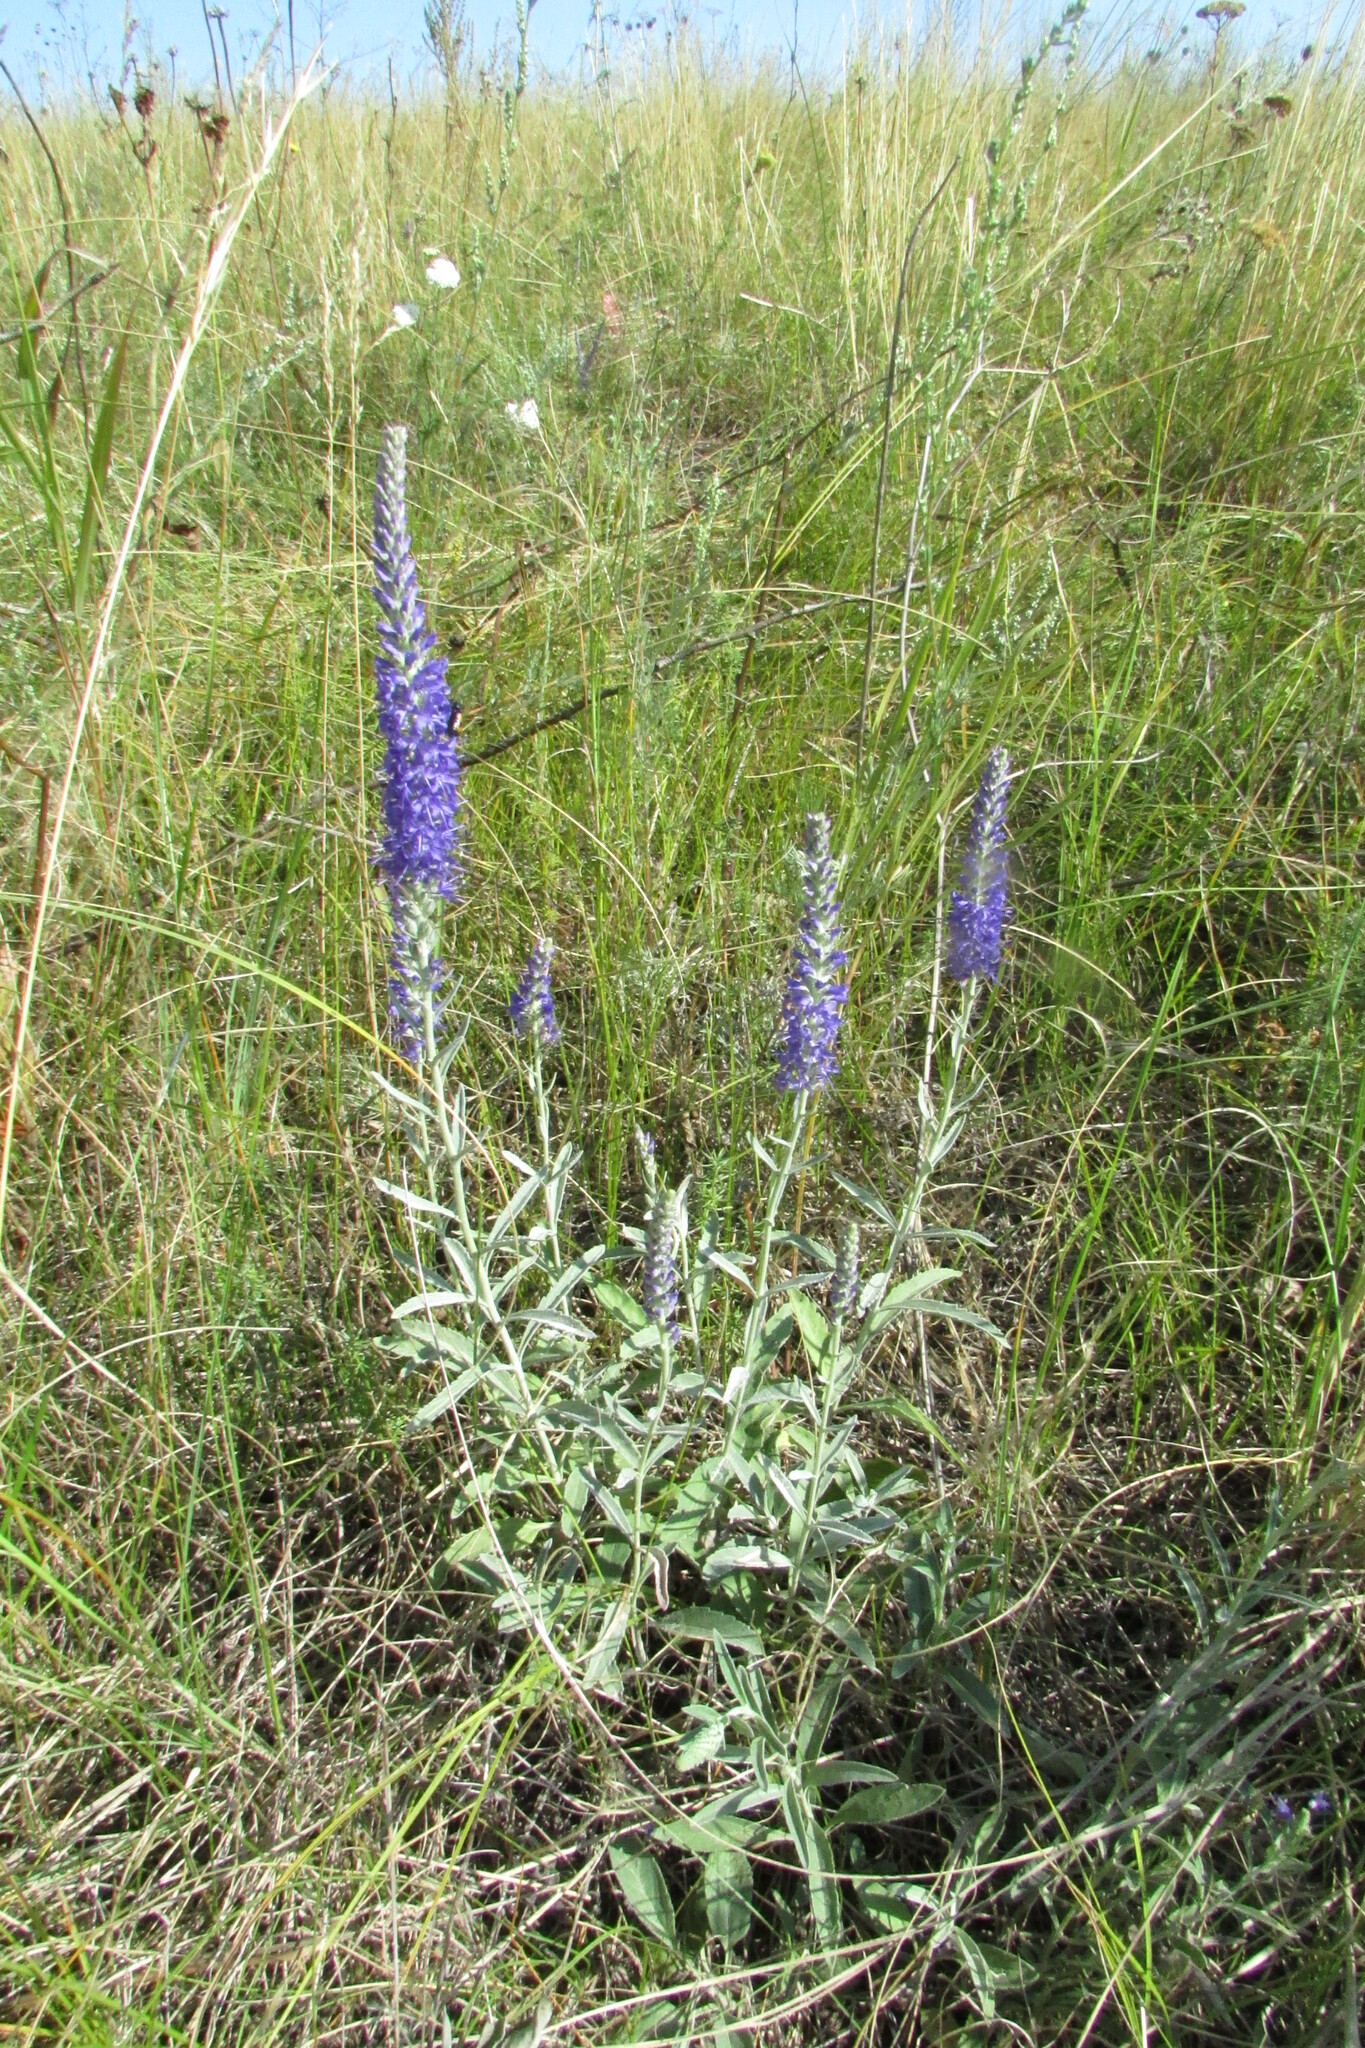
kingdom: Plantae
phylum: Tracheophyta
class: Magnoliopsida
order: Lamiales
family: Plantaginaceae
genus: Veronica
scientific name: Veronica incana
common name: Silver speedwell
